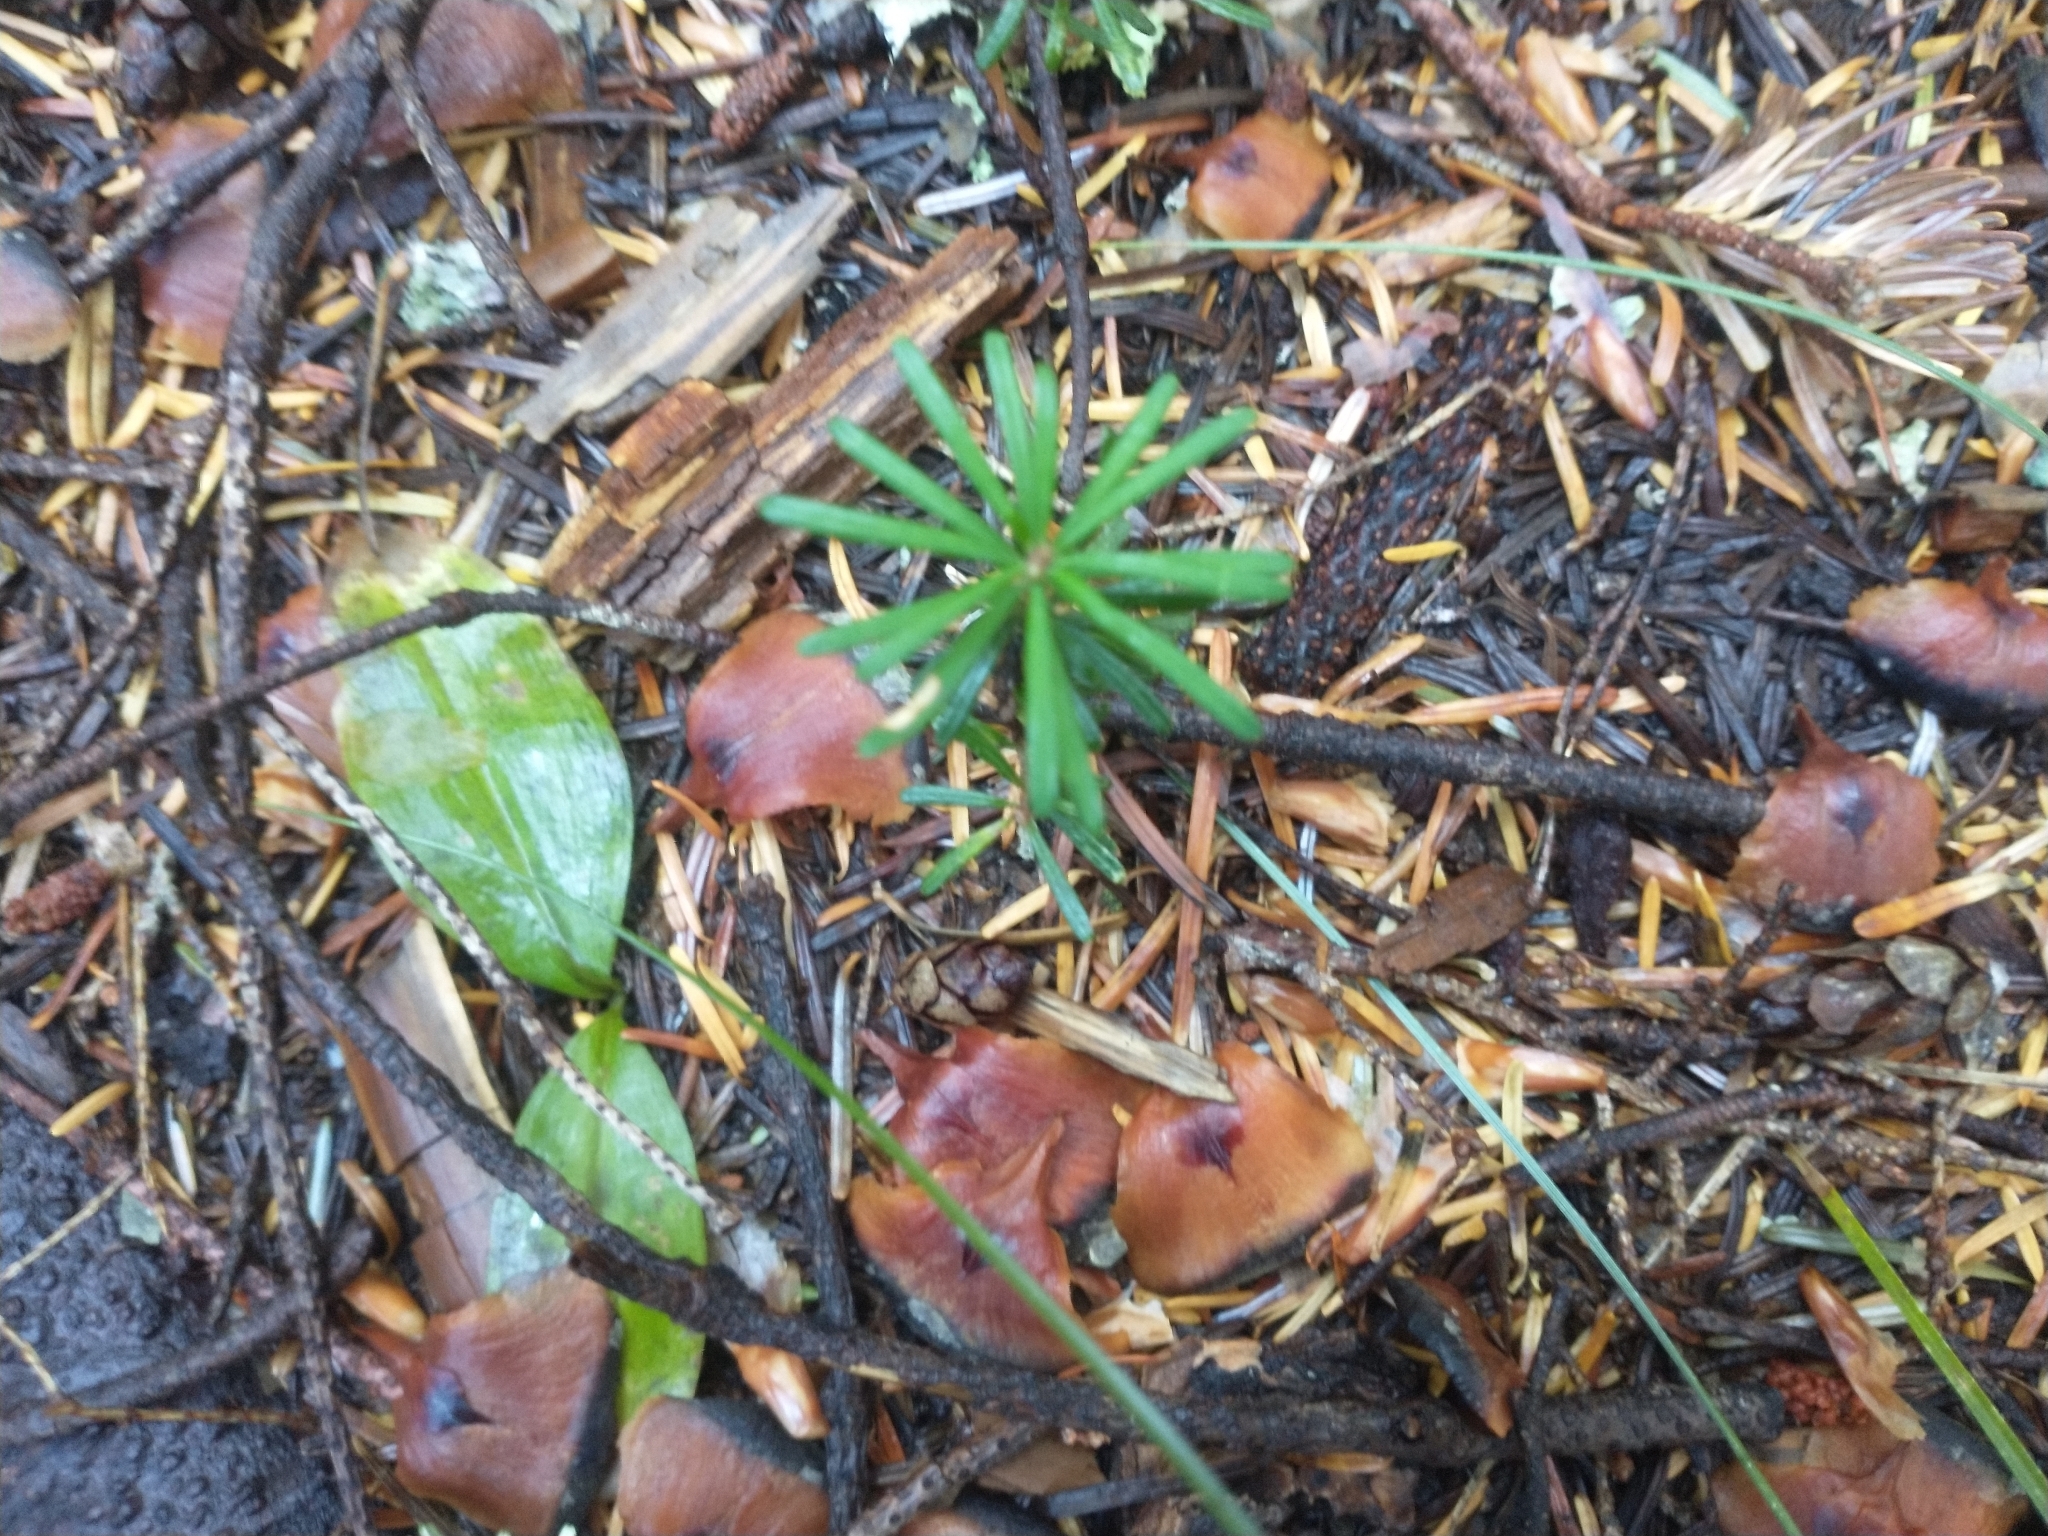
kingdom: Plantae
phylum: Tracheophyta
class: Pinopsida
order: Pinales
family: Pinaceae
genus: Abies
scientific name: Abies amabilis
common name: Pacific silver fir
